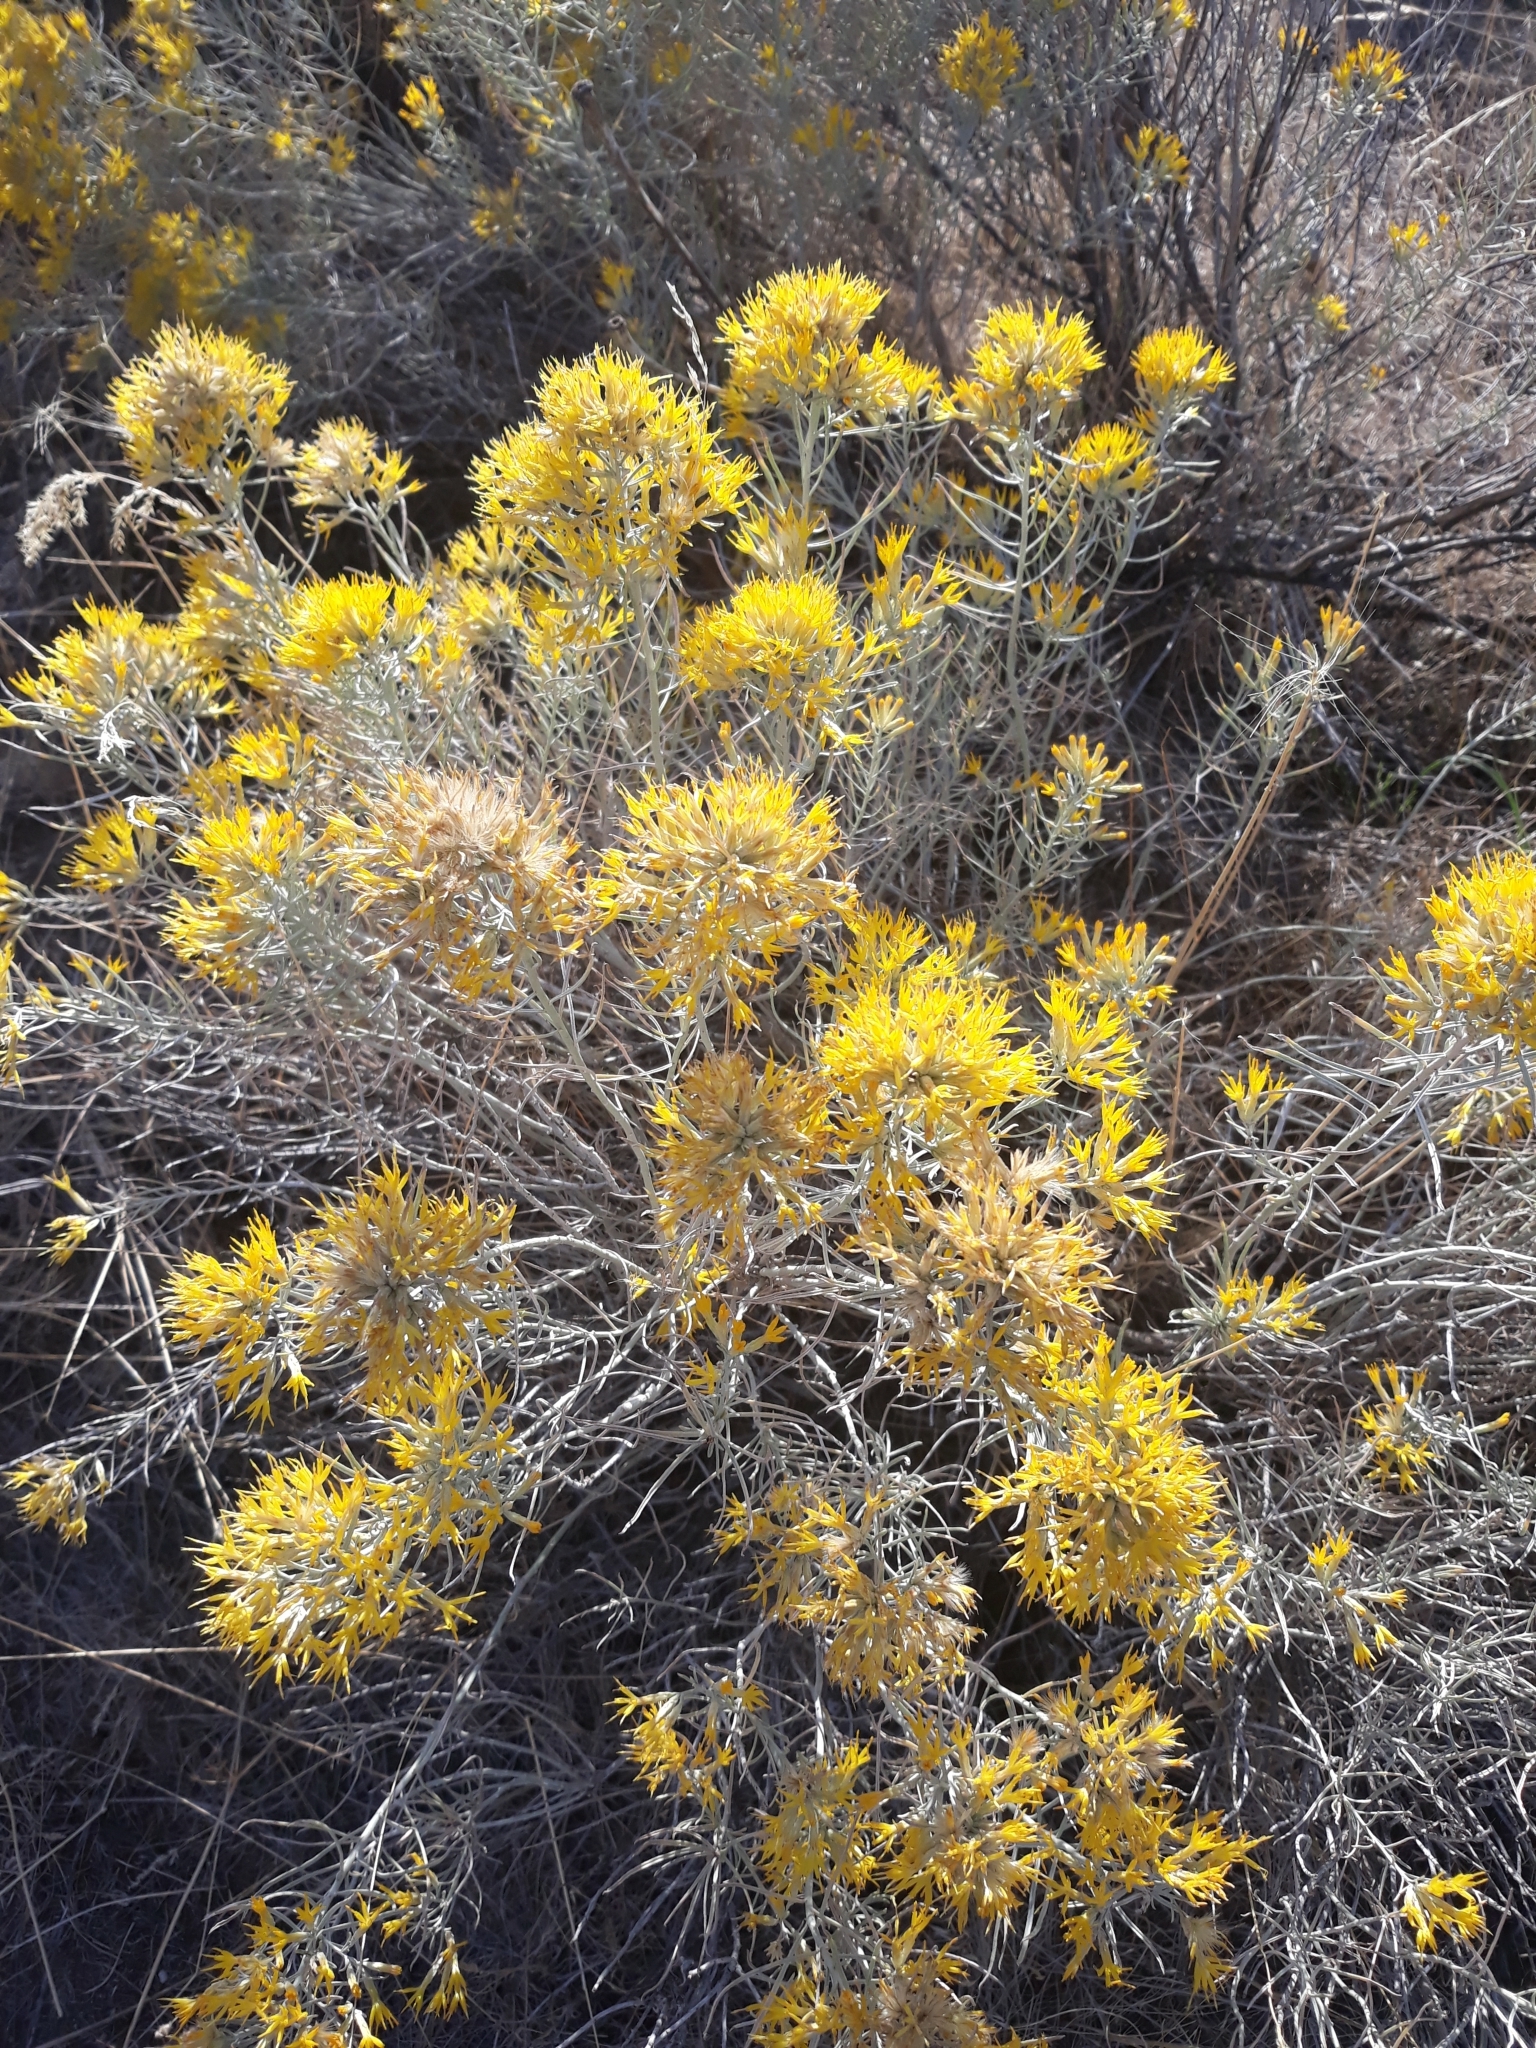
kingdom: Plantae
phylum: Tracheophyta
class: Magnoliopsida
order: Asterales
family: Asteraceae
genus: Ericameria
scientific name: Ericameria nauseosa
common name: Rubber rabbitbrush
